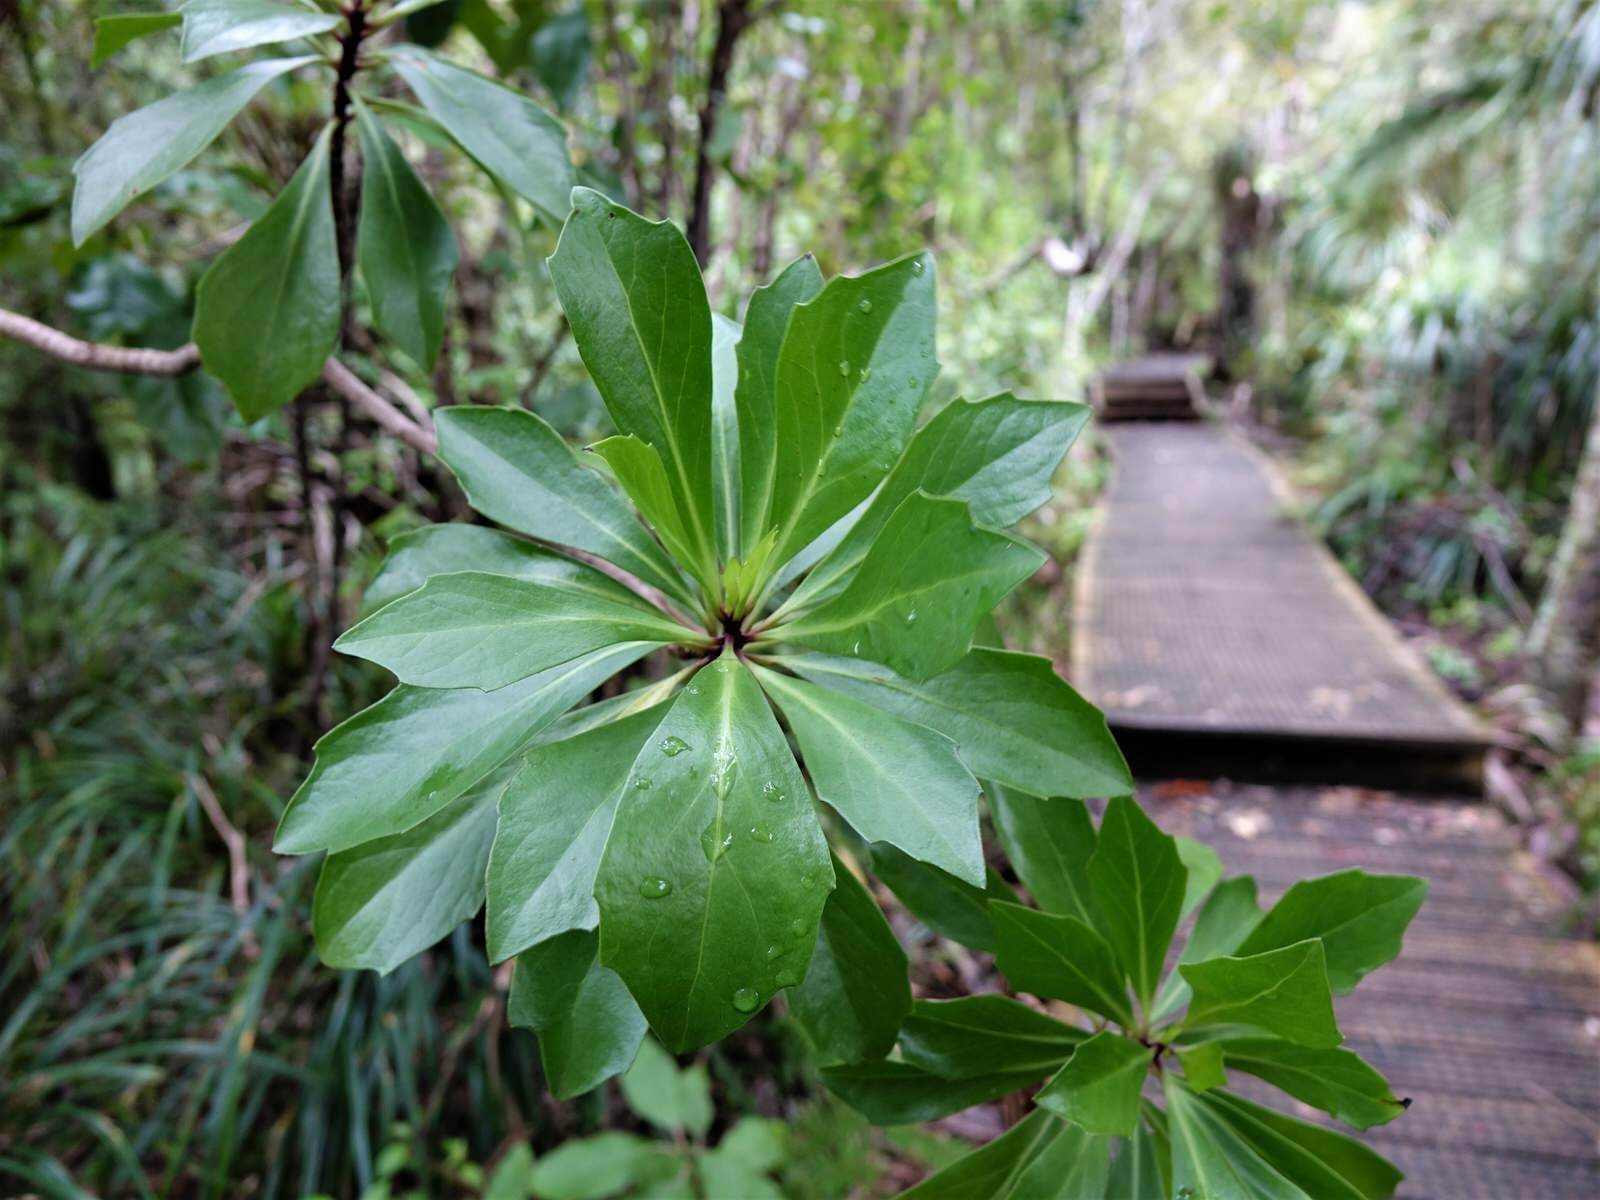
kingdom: Plantae
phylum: Tracheophyta
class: Magnoliopsida
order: Asterales
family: Asteraceae
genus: Brachyglottis
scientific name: Brachyglottis kirkii
